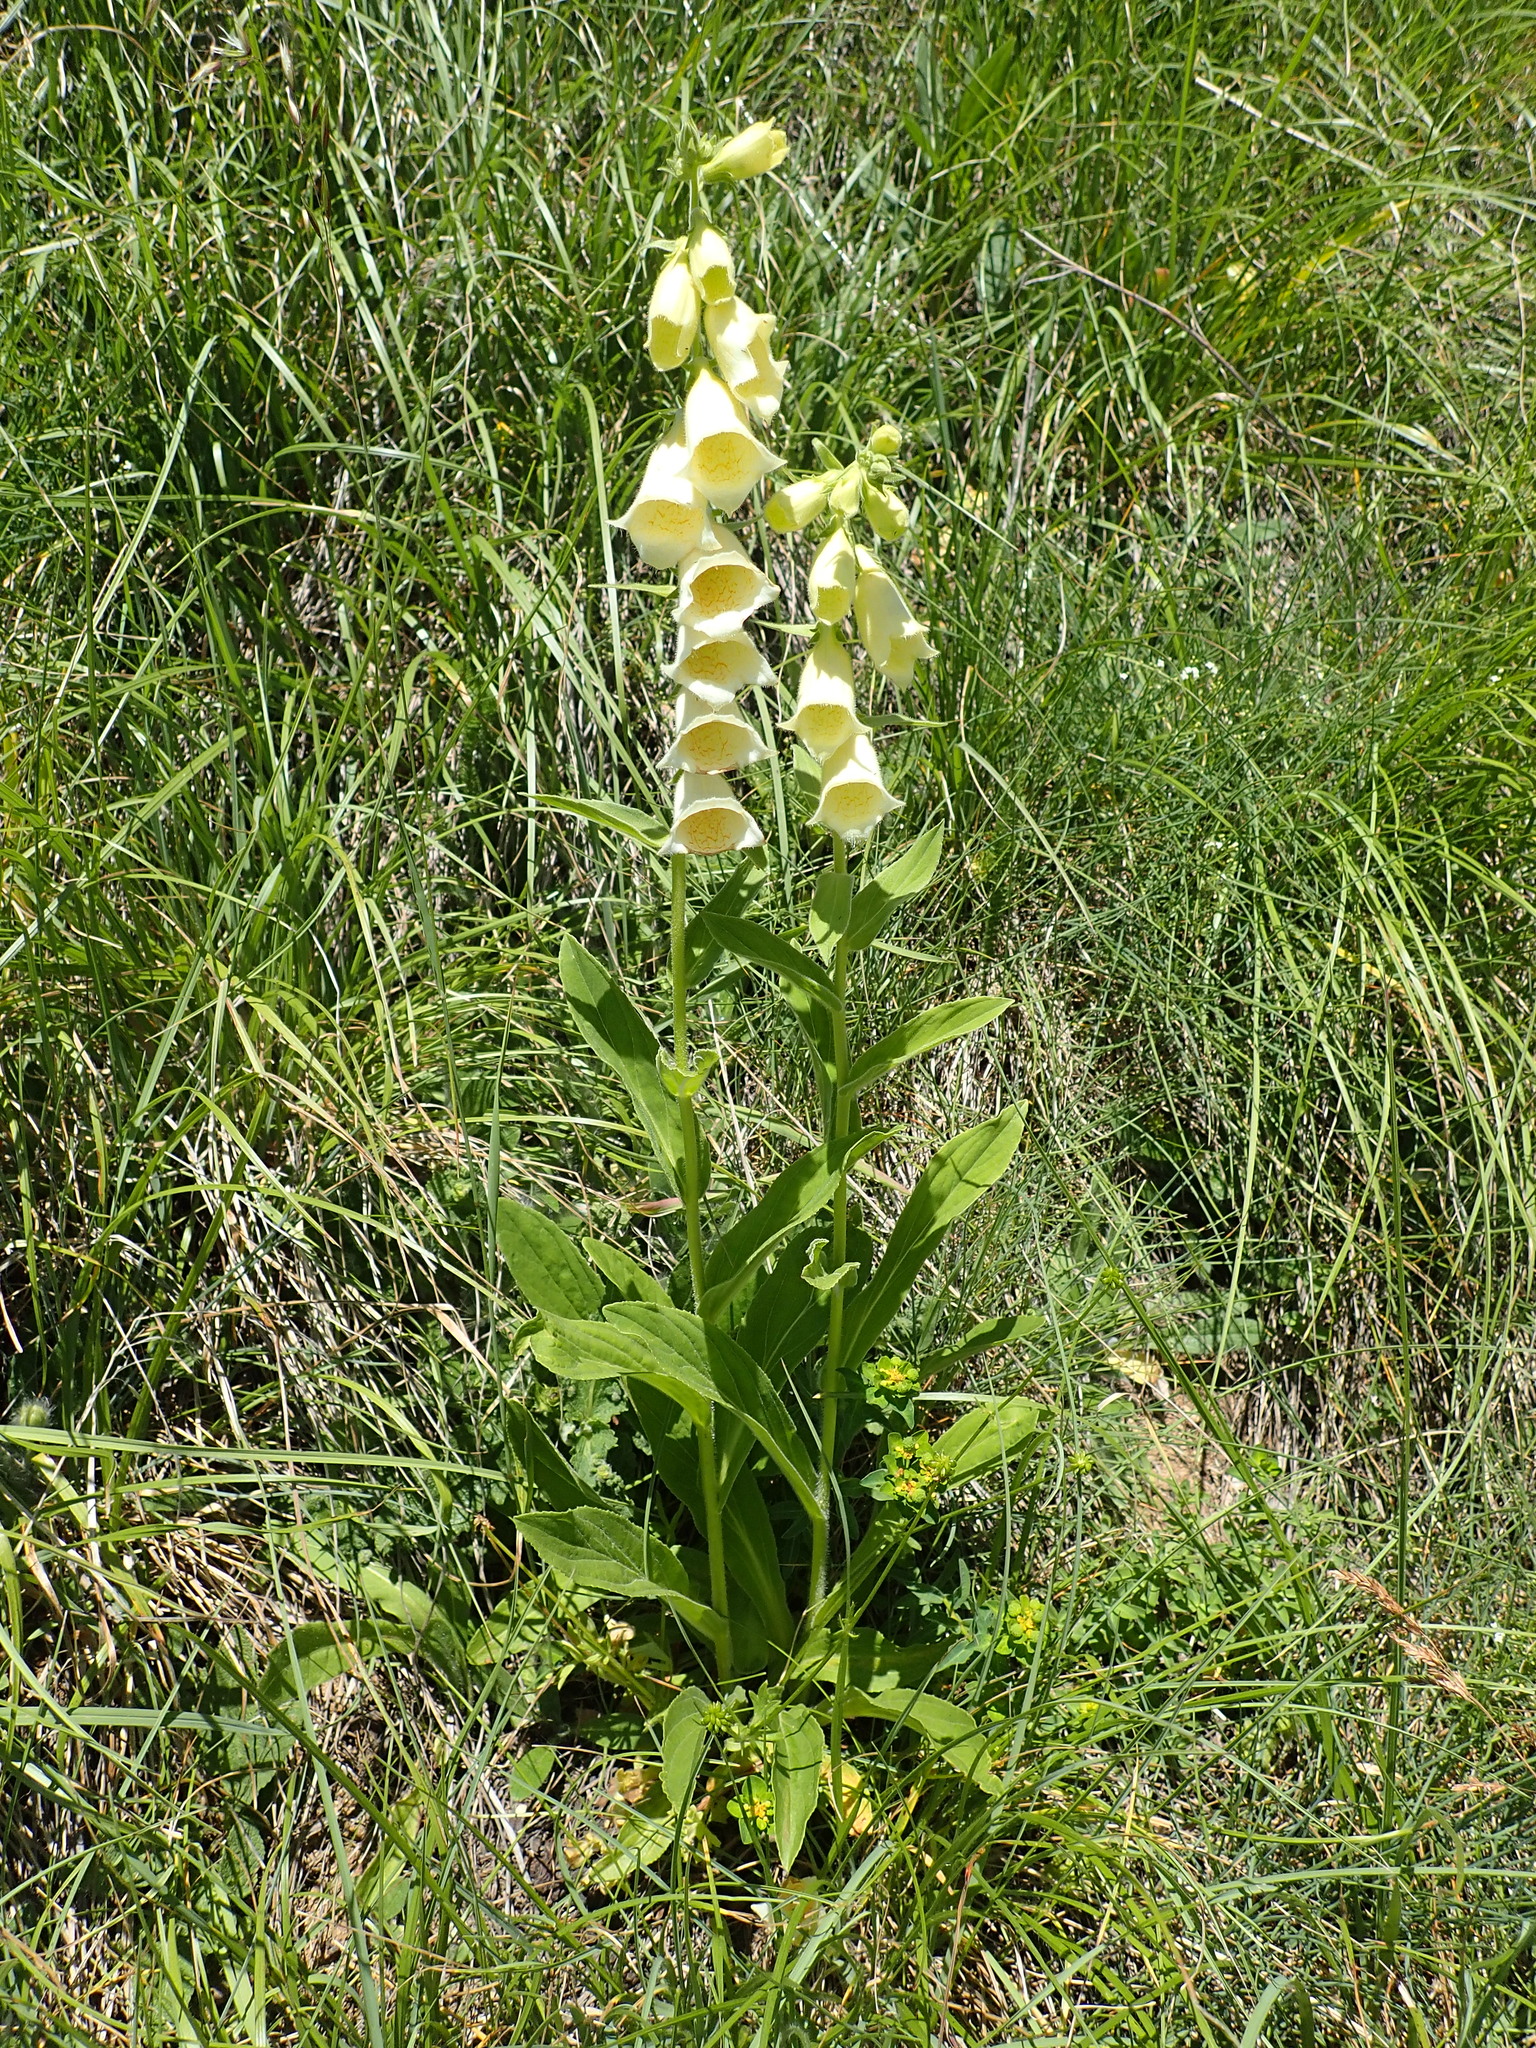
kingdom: Plantae
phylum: Tracheophyta
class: Magnoliopsida
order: Lamiales
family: Plantaginaceae
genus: Digitalis
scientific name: Digitalis grandiflora
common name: Yellow foxglove
